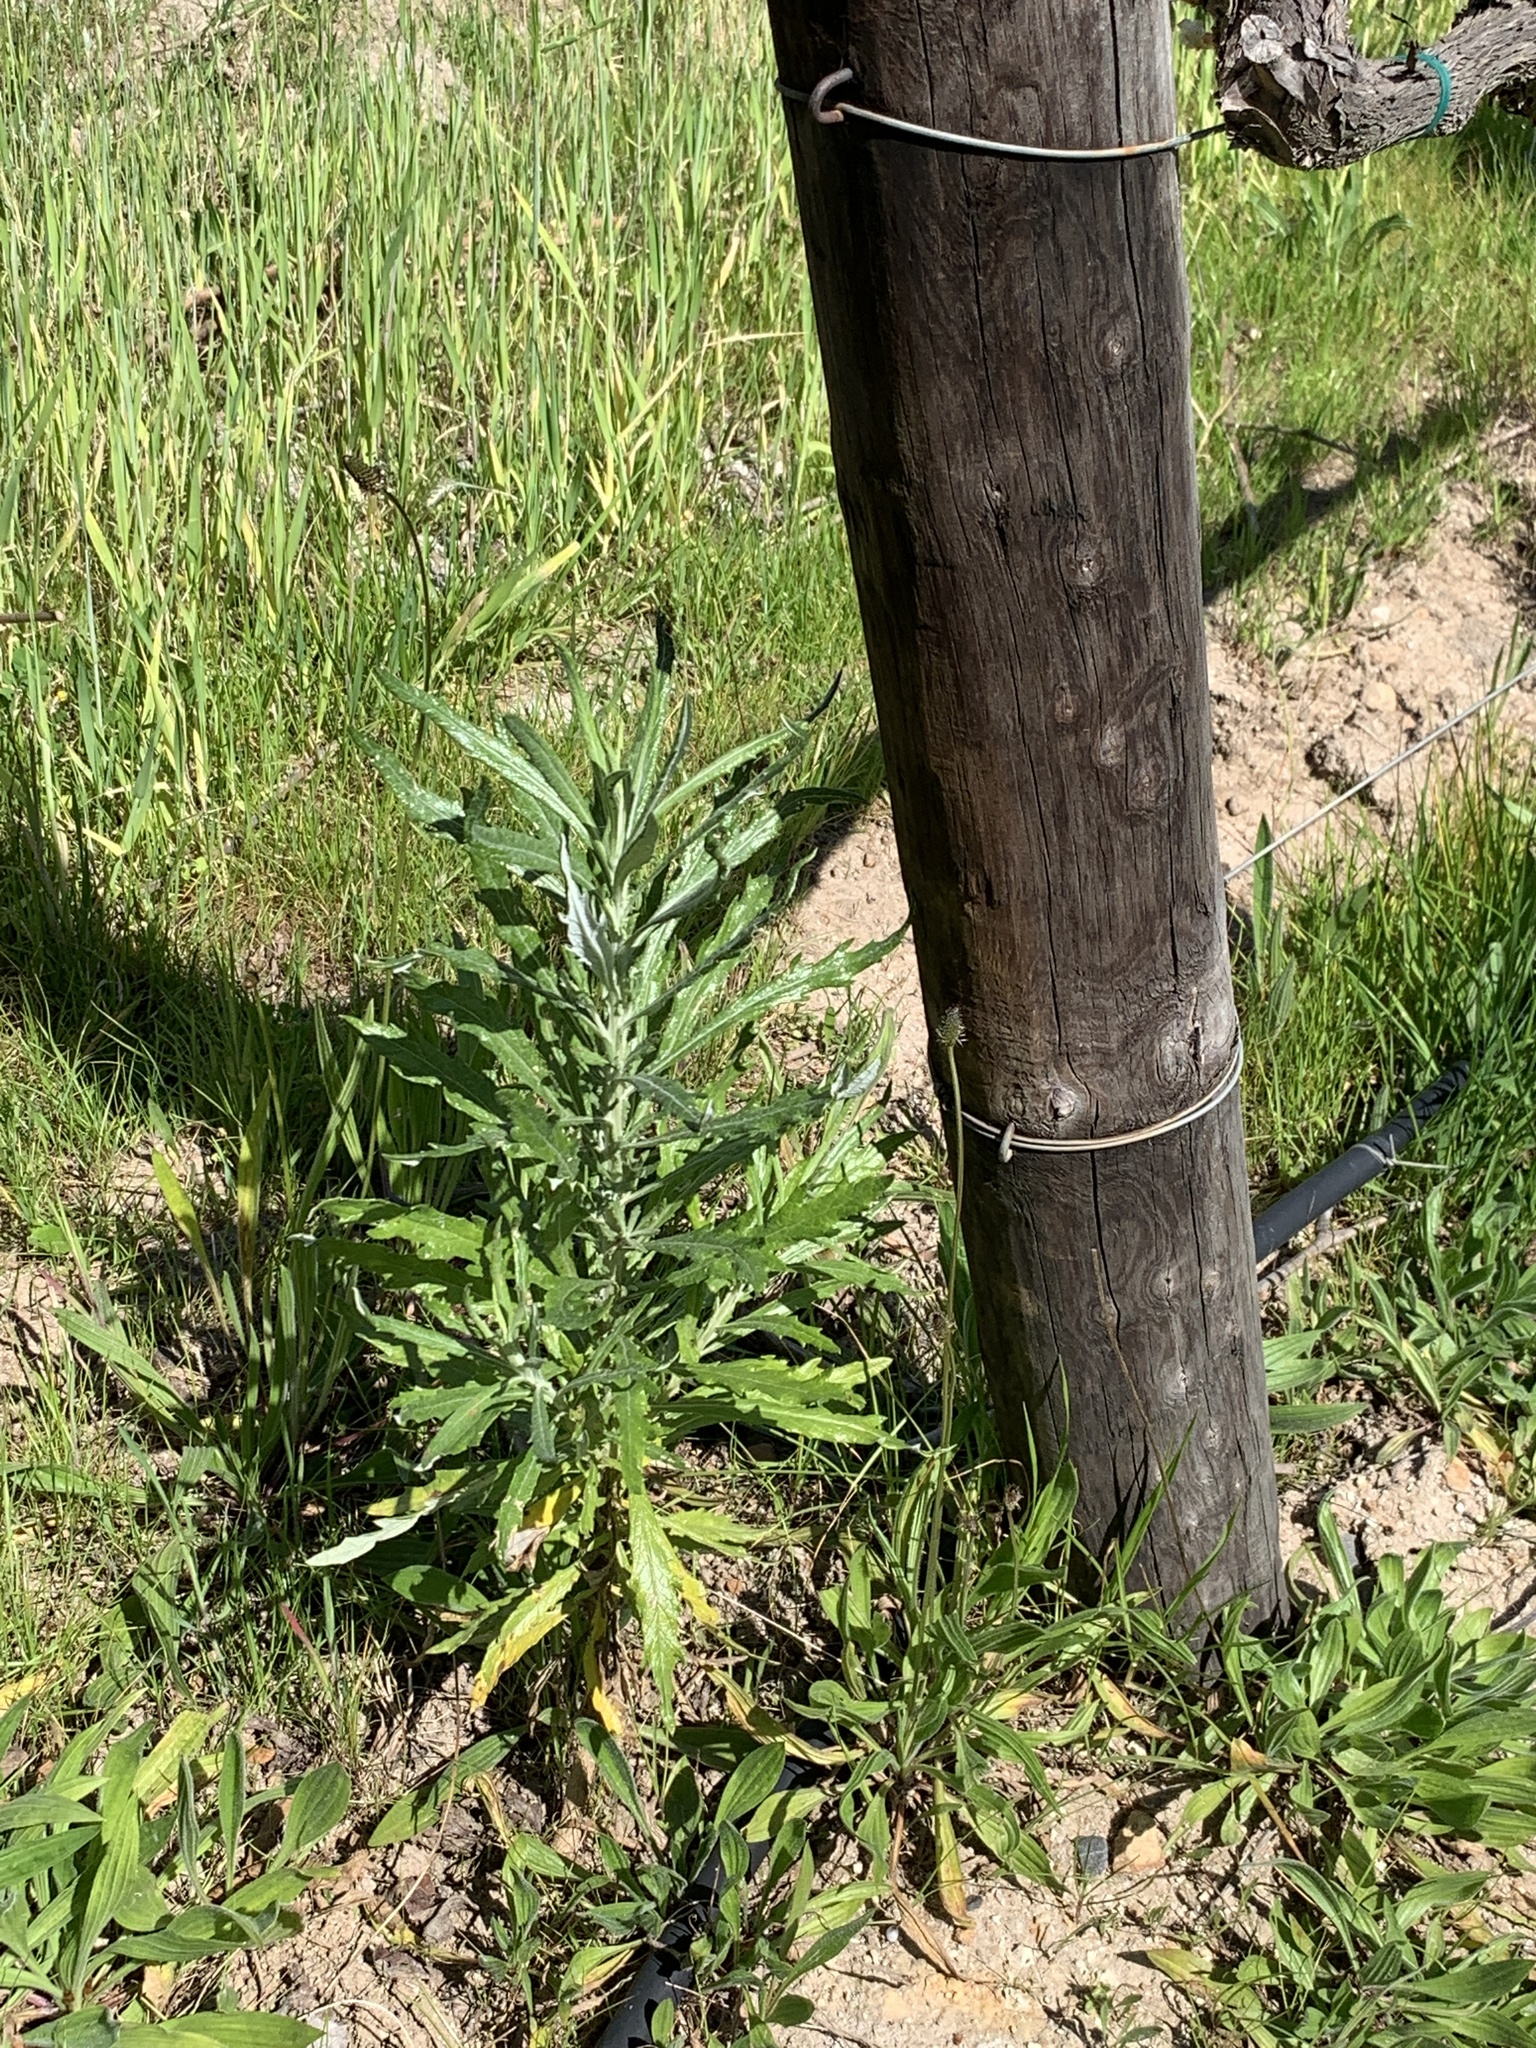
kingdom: Plantae
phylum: Tracheophyta
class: Magnoliopsida
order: Asterales
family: Asteraceae
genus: Senecio
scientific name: Senecio pterophorus
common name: Shoddy ragwort
